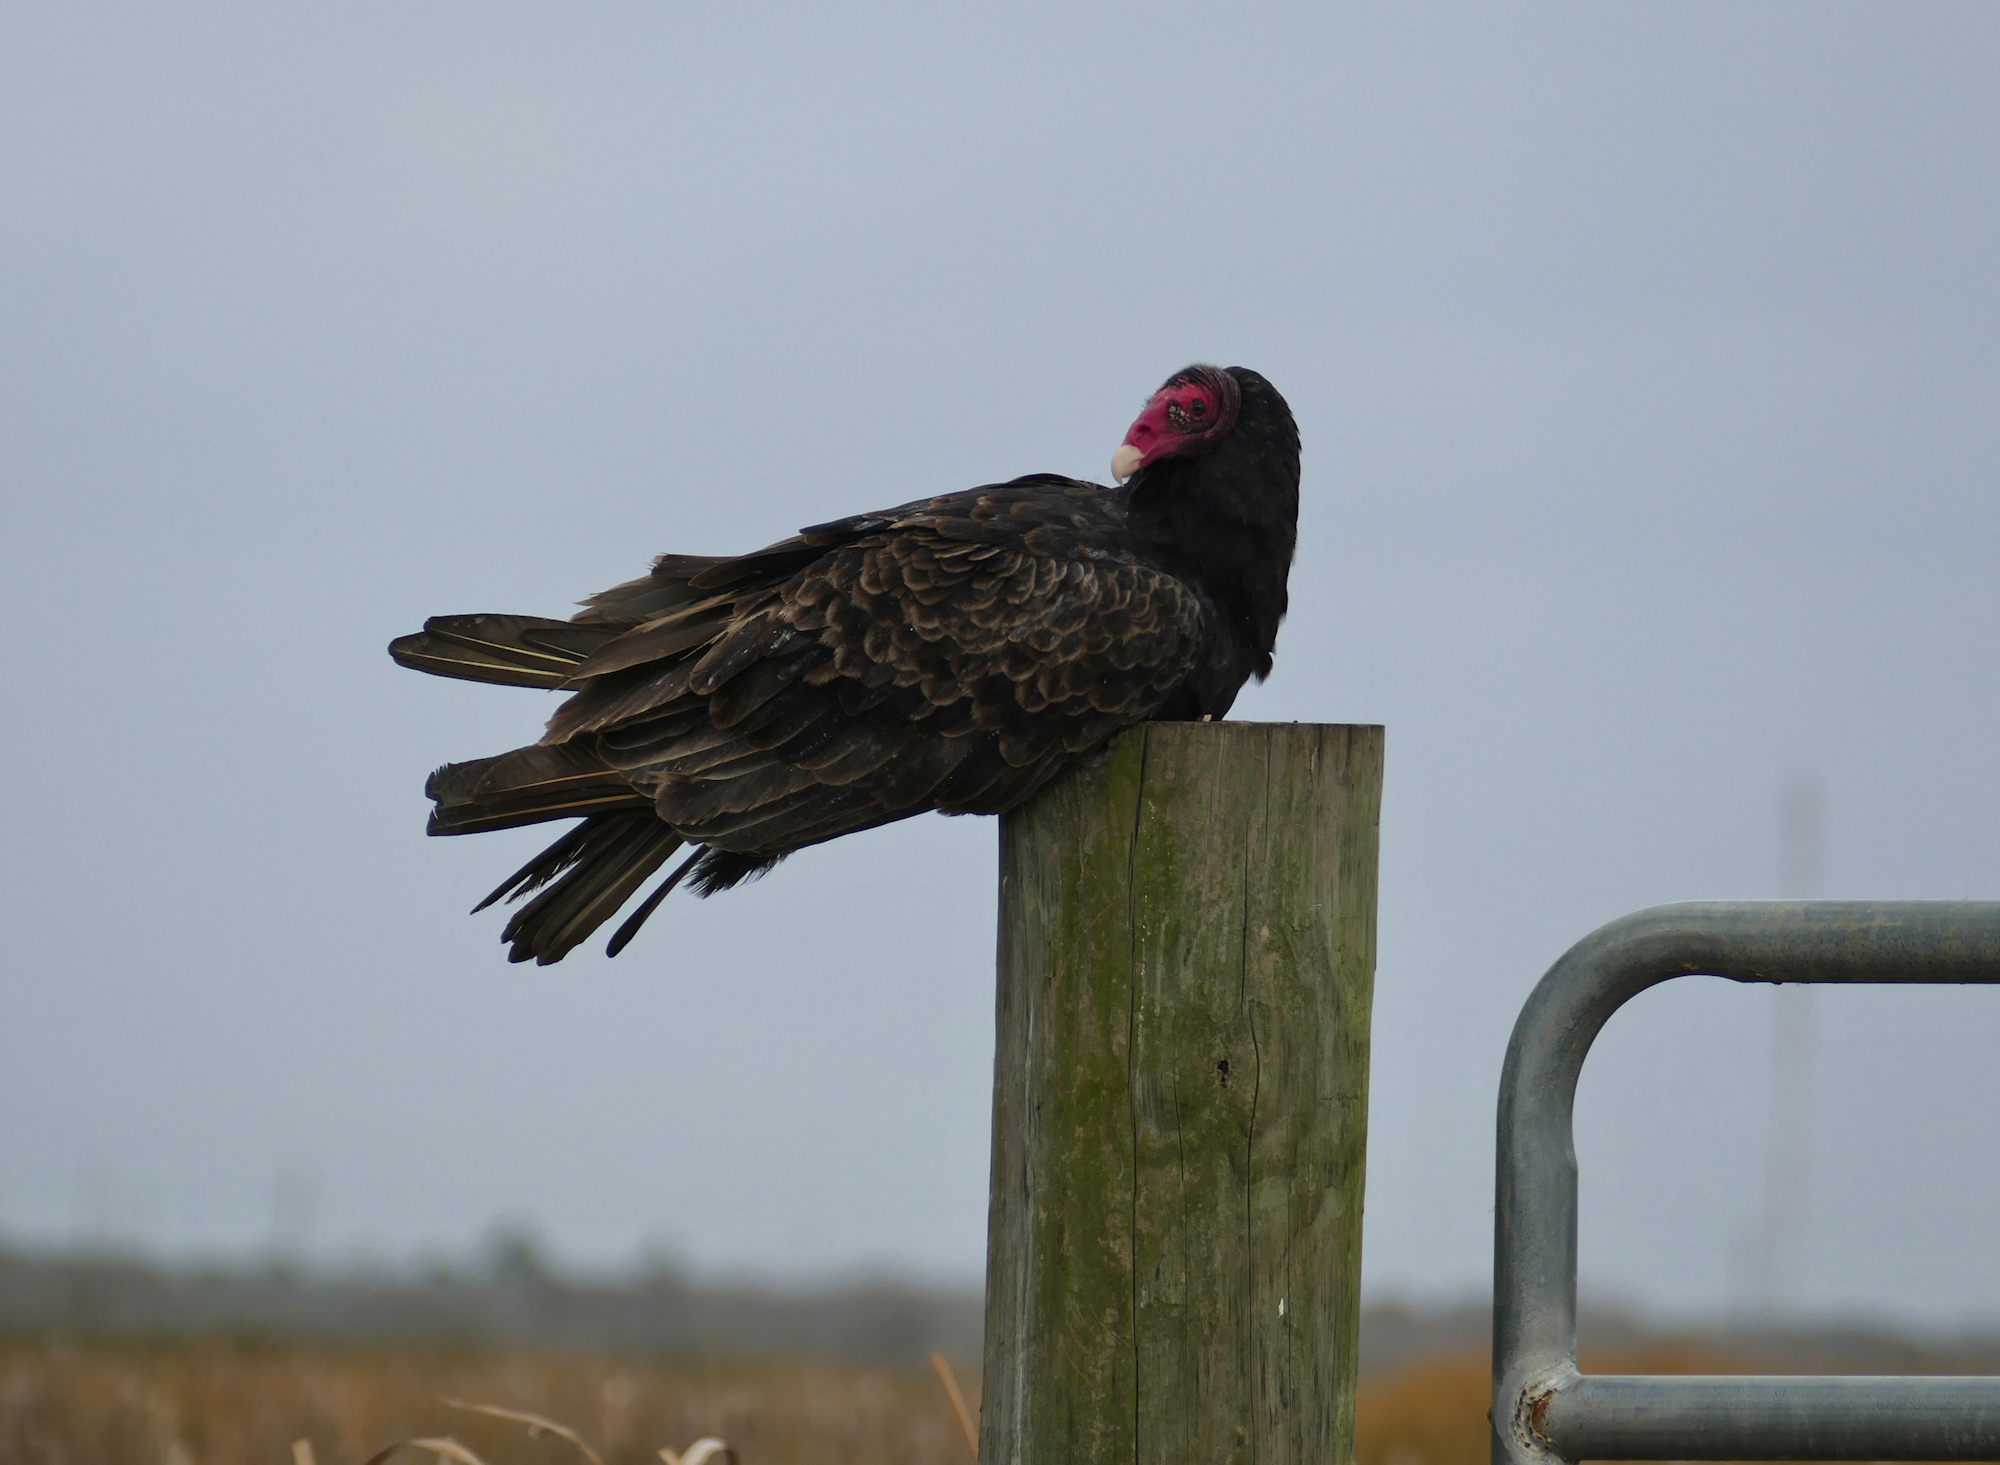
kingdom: Animalia
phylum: Chordata
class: Aves
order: Accipitriformes
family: Cathartidae
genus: Cathartes
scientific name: Cathartes aura
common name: Turkey vulture
